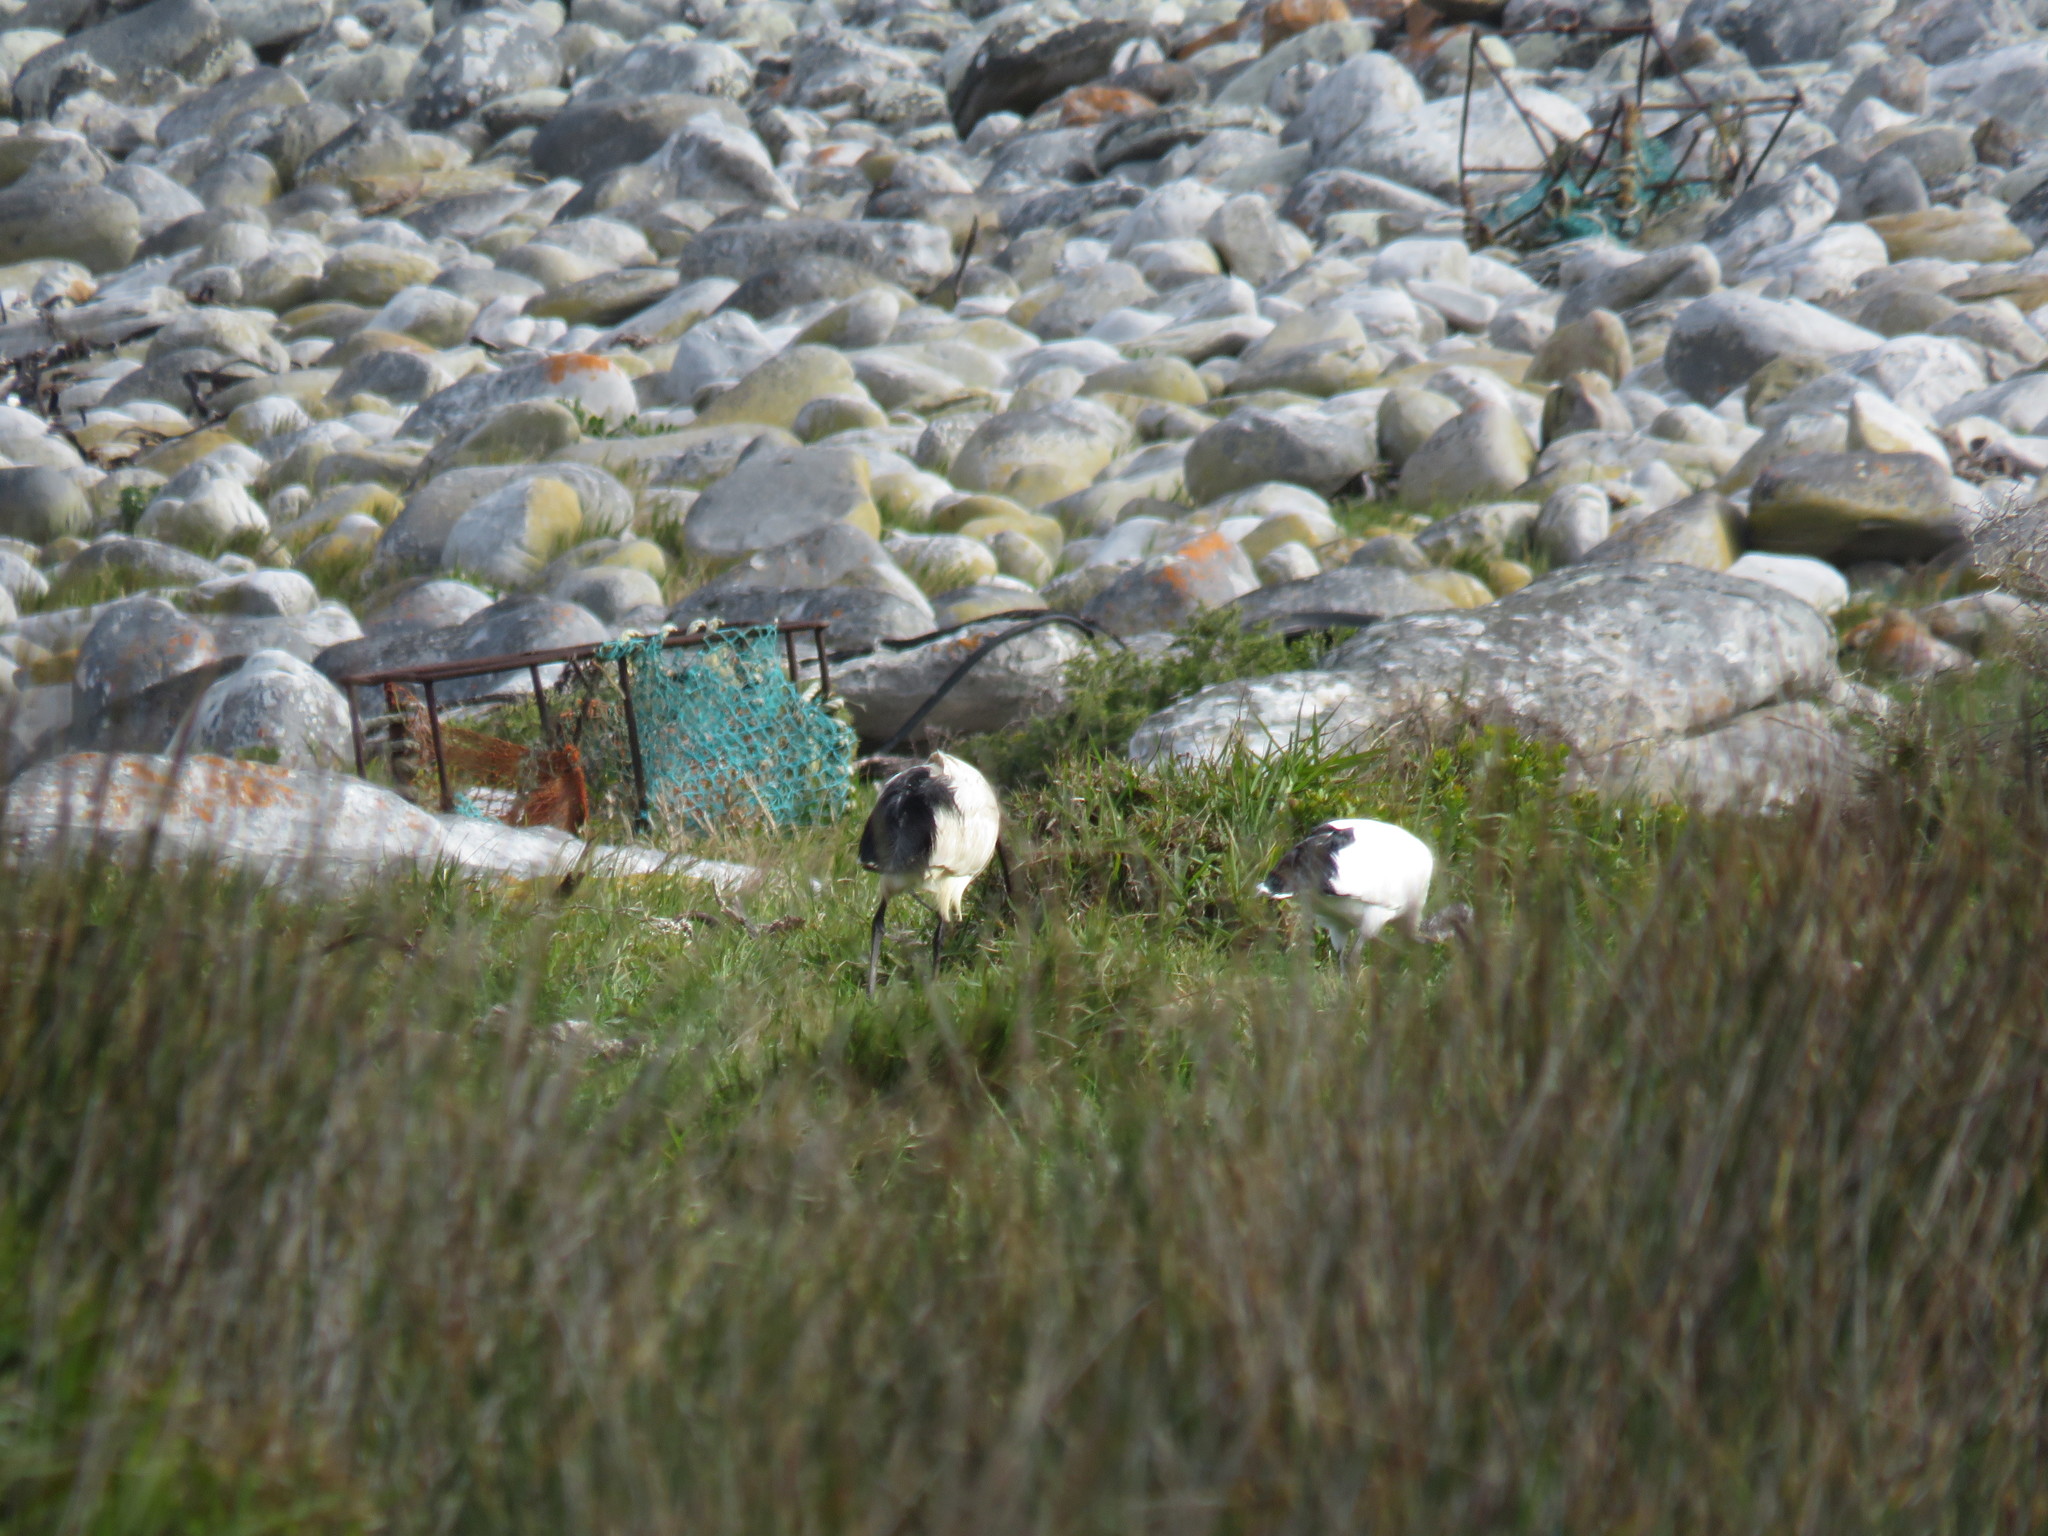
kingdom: Animalia
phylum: Chordata
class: Aves
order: Pelecaniformes
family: Threskiornithidae
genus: Threskiornis
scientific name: Threskiornis aethiopicus
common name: Sacred ibis
